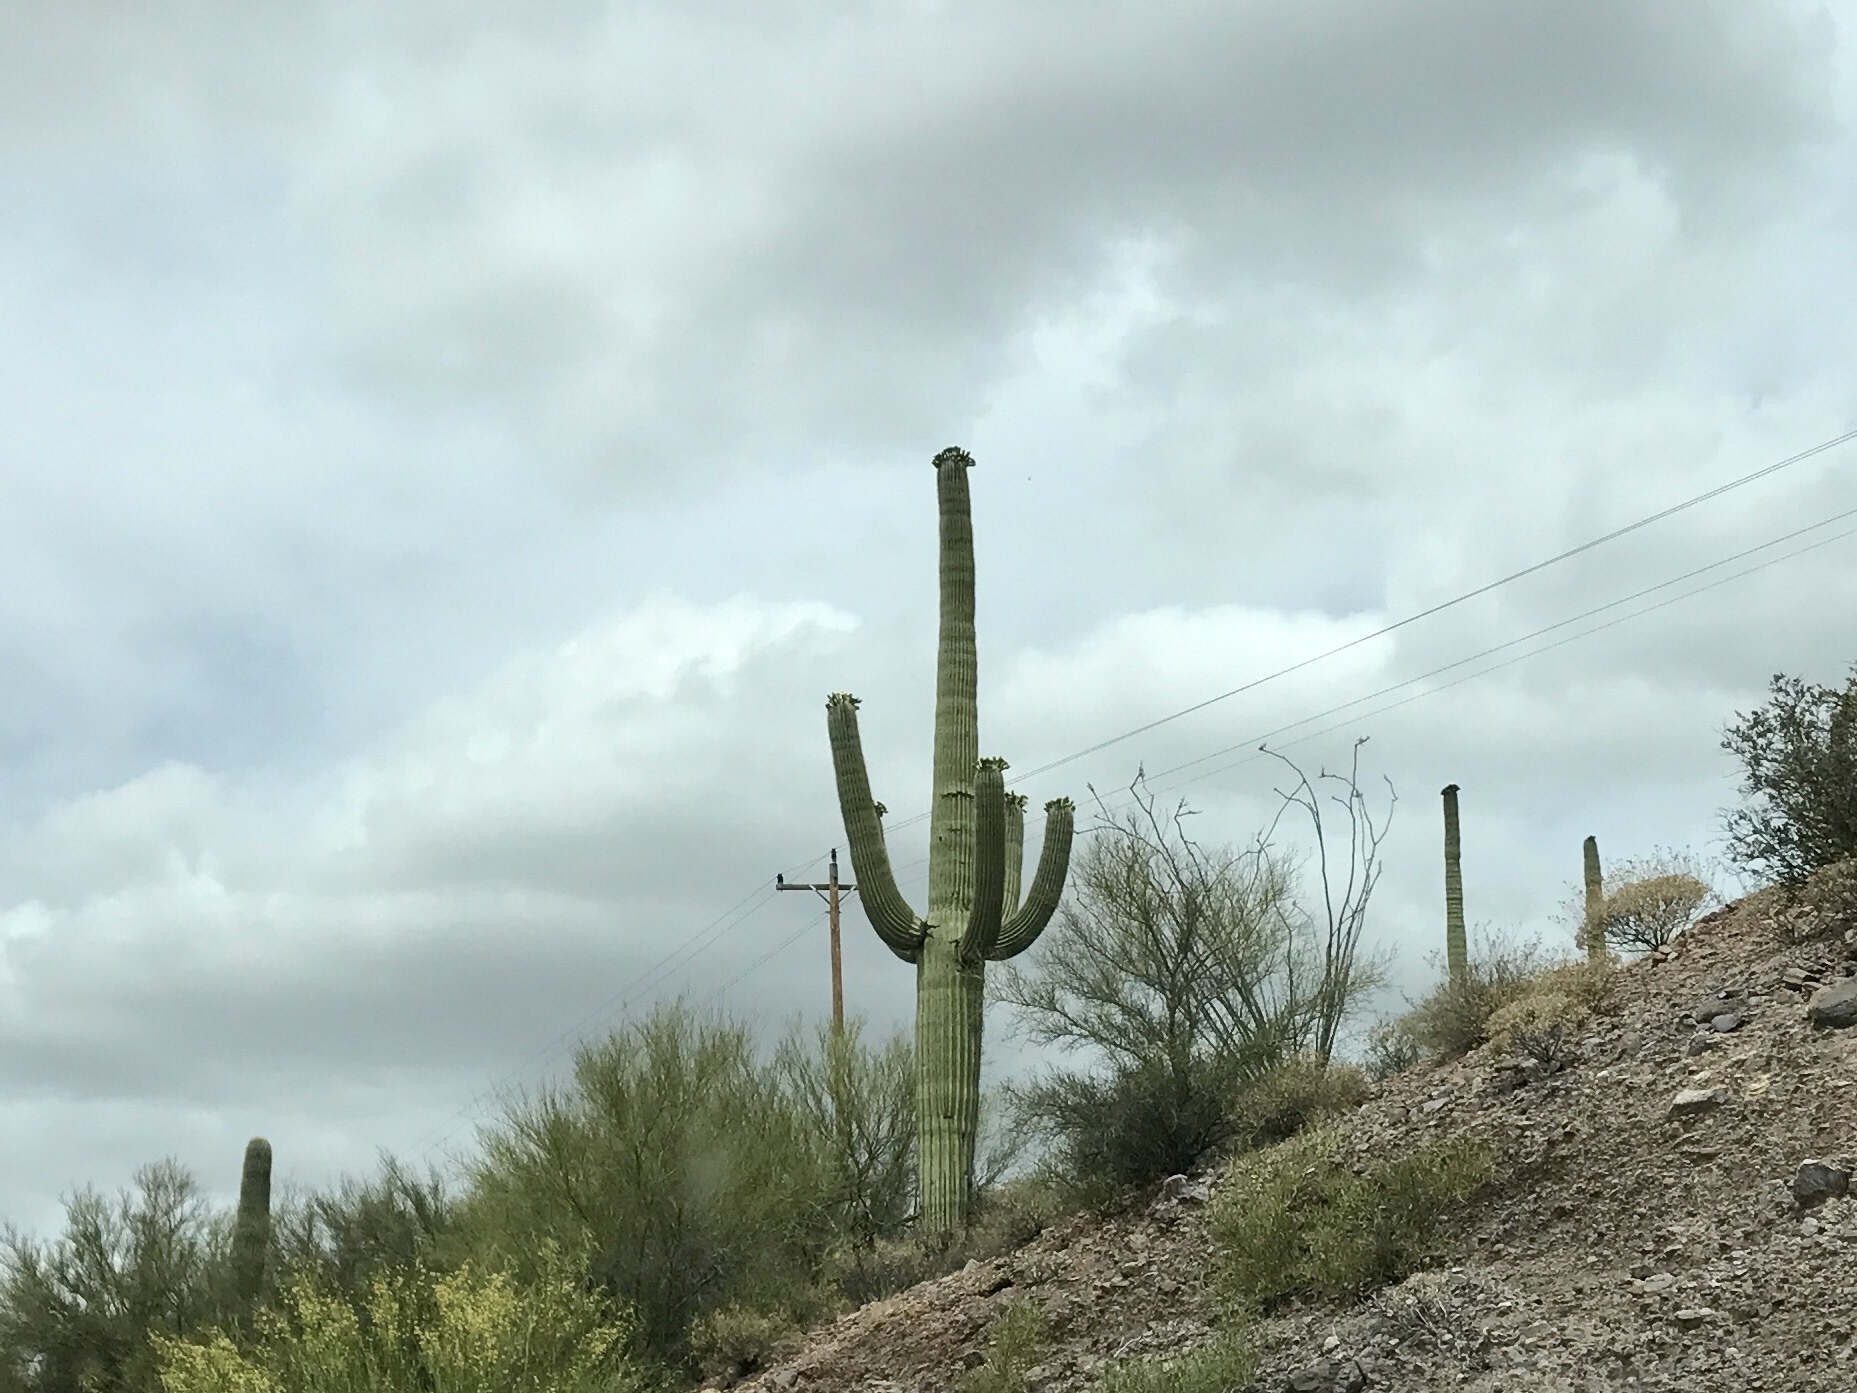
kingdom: Plantae
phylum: Tracheophyta
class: Magnoliopsida
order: Caryophyllales
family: Cactaceae
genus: Carnegiea
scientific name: Carnegiea gigantea
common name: Saguaro
